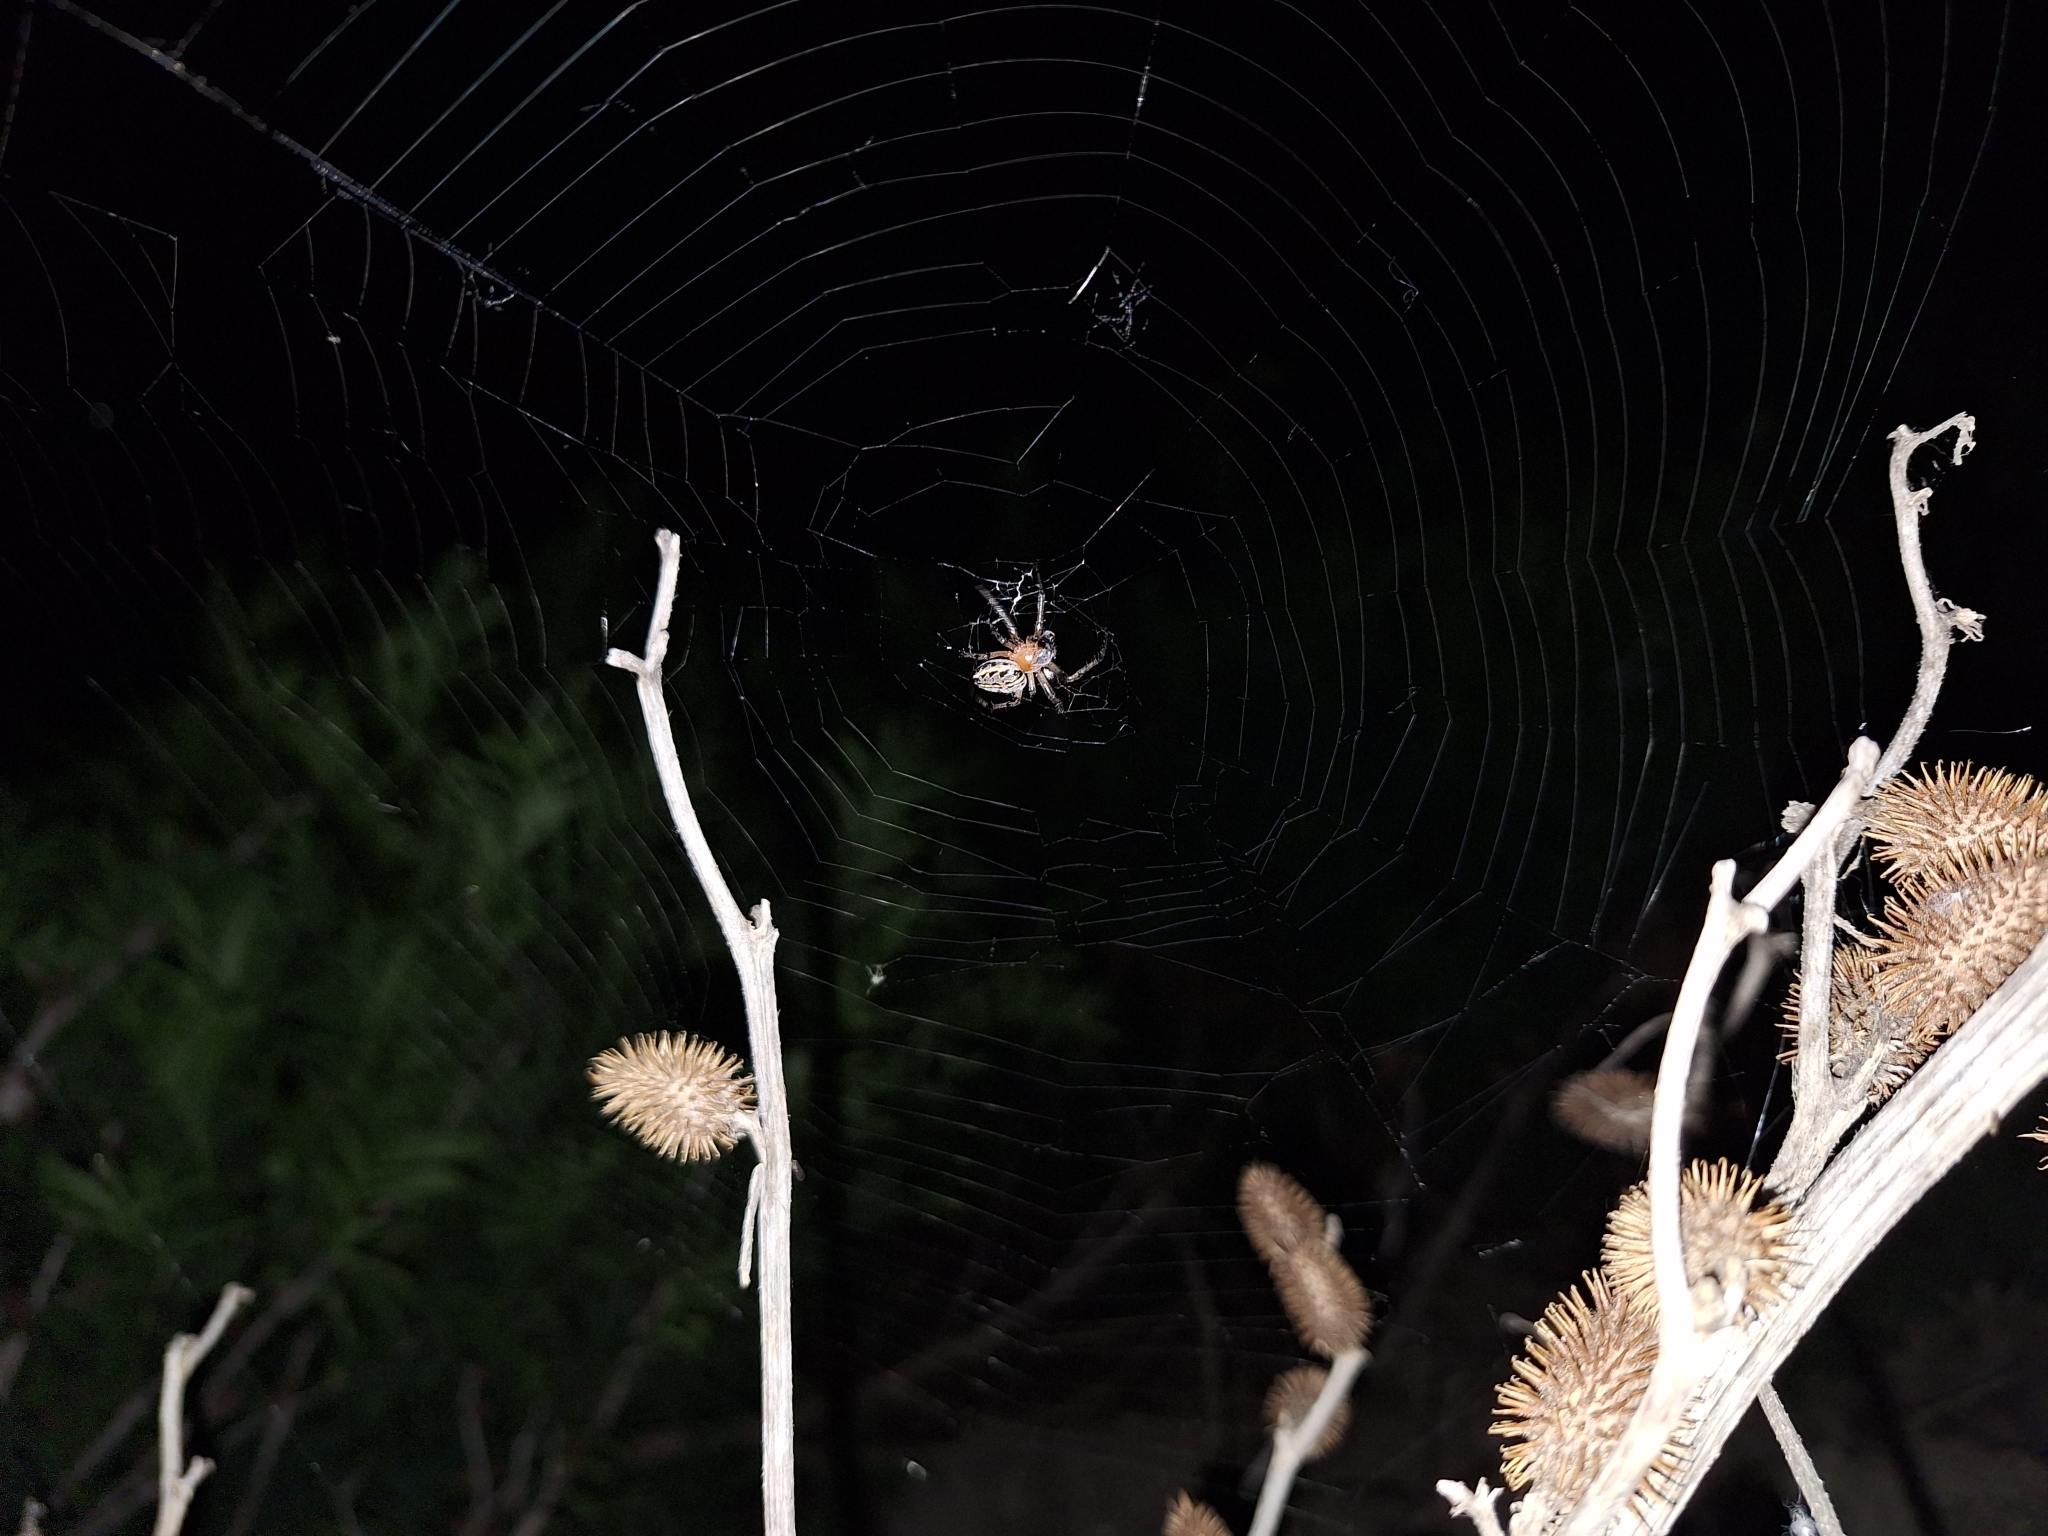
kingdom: Animalia
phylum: Arthropoda
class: Arachnida
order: Araneae
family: Araneidae
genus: Alpaida
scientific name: Alpaida veniliae
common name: Orb weavers
